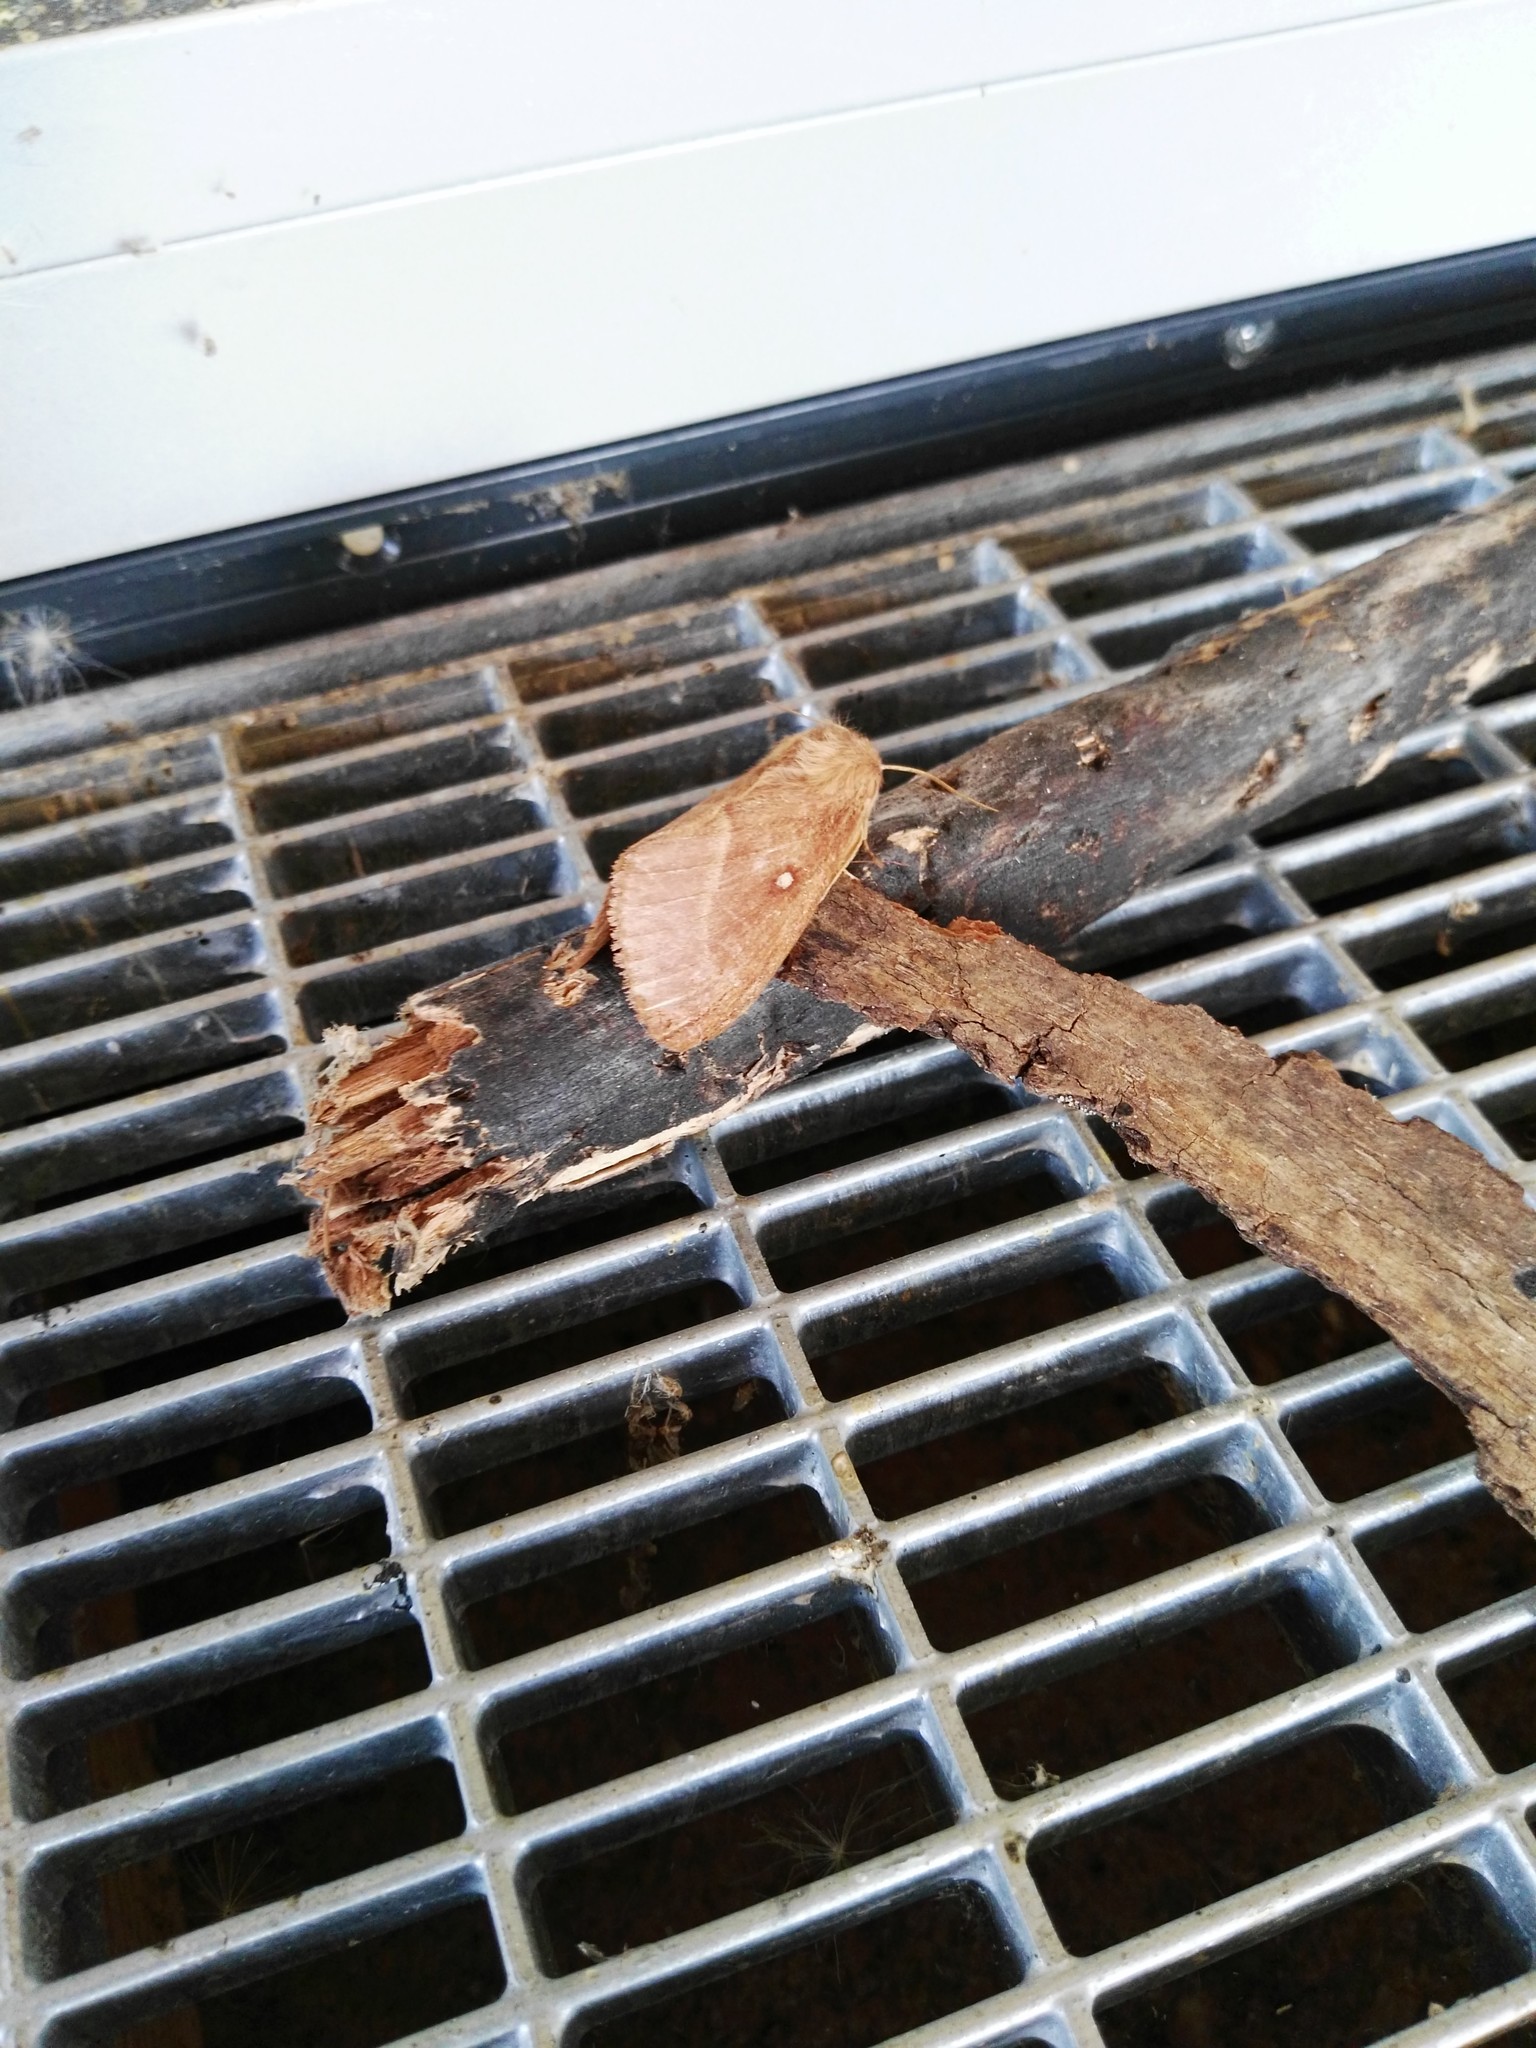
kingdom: Animalia
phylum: Arthropoda
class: Insecta
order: Lepidoptera
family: Lasiocampidae
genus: Lasiocampa
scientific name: Lasiocampa trifolii
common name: Grass eggar
